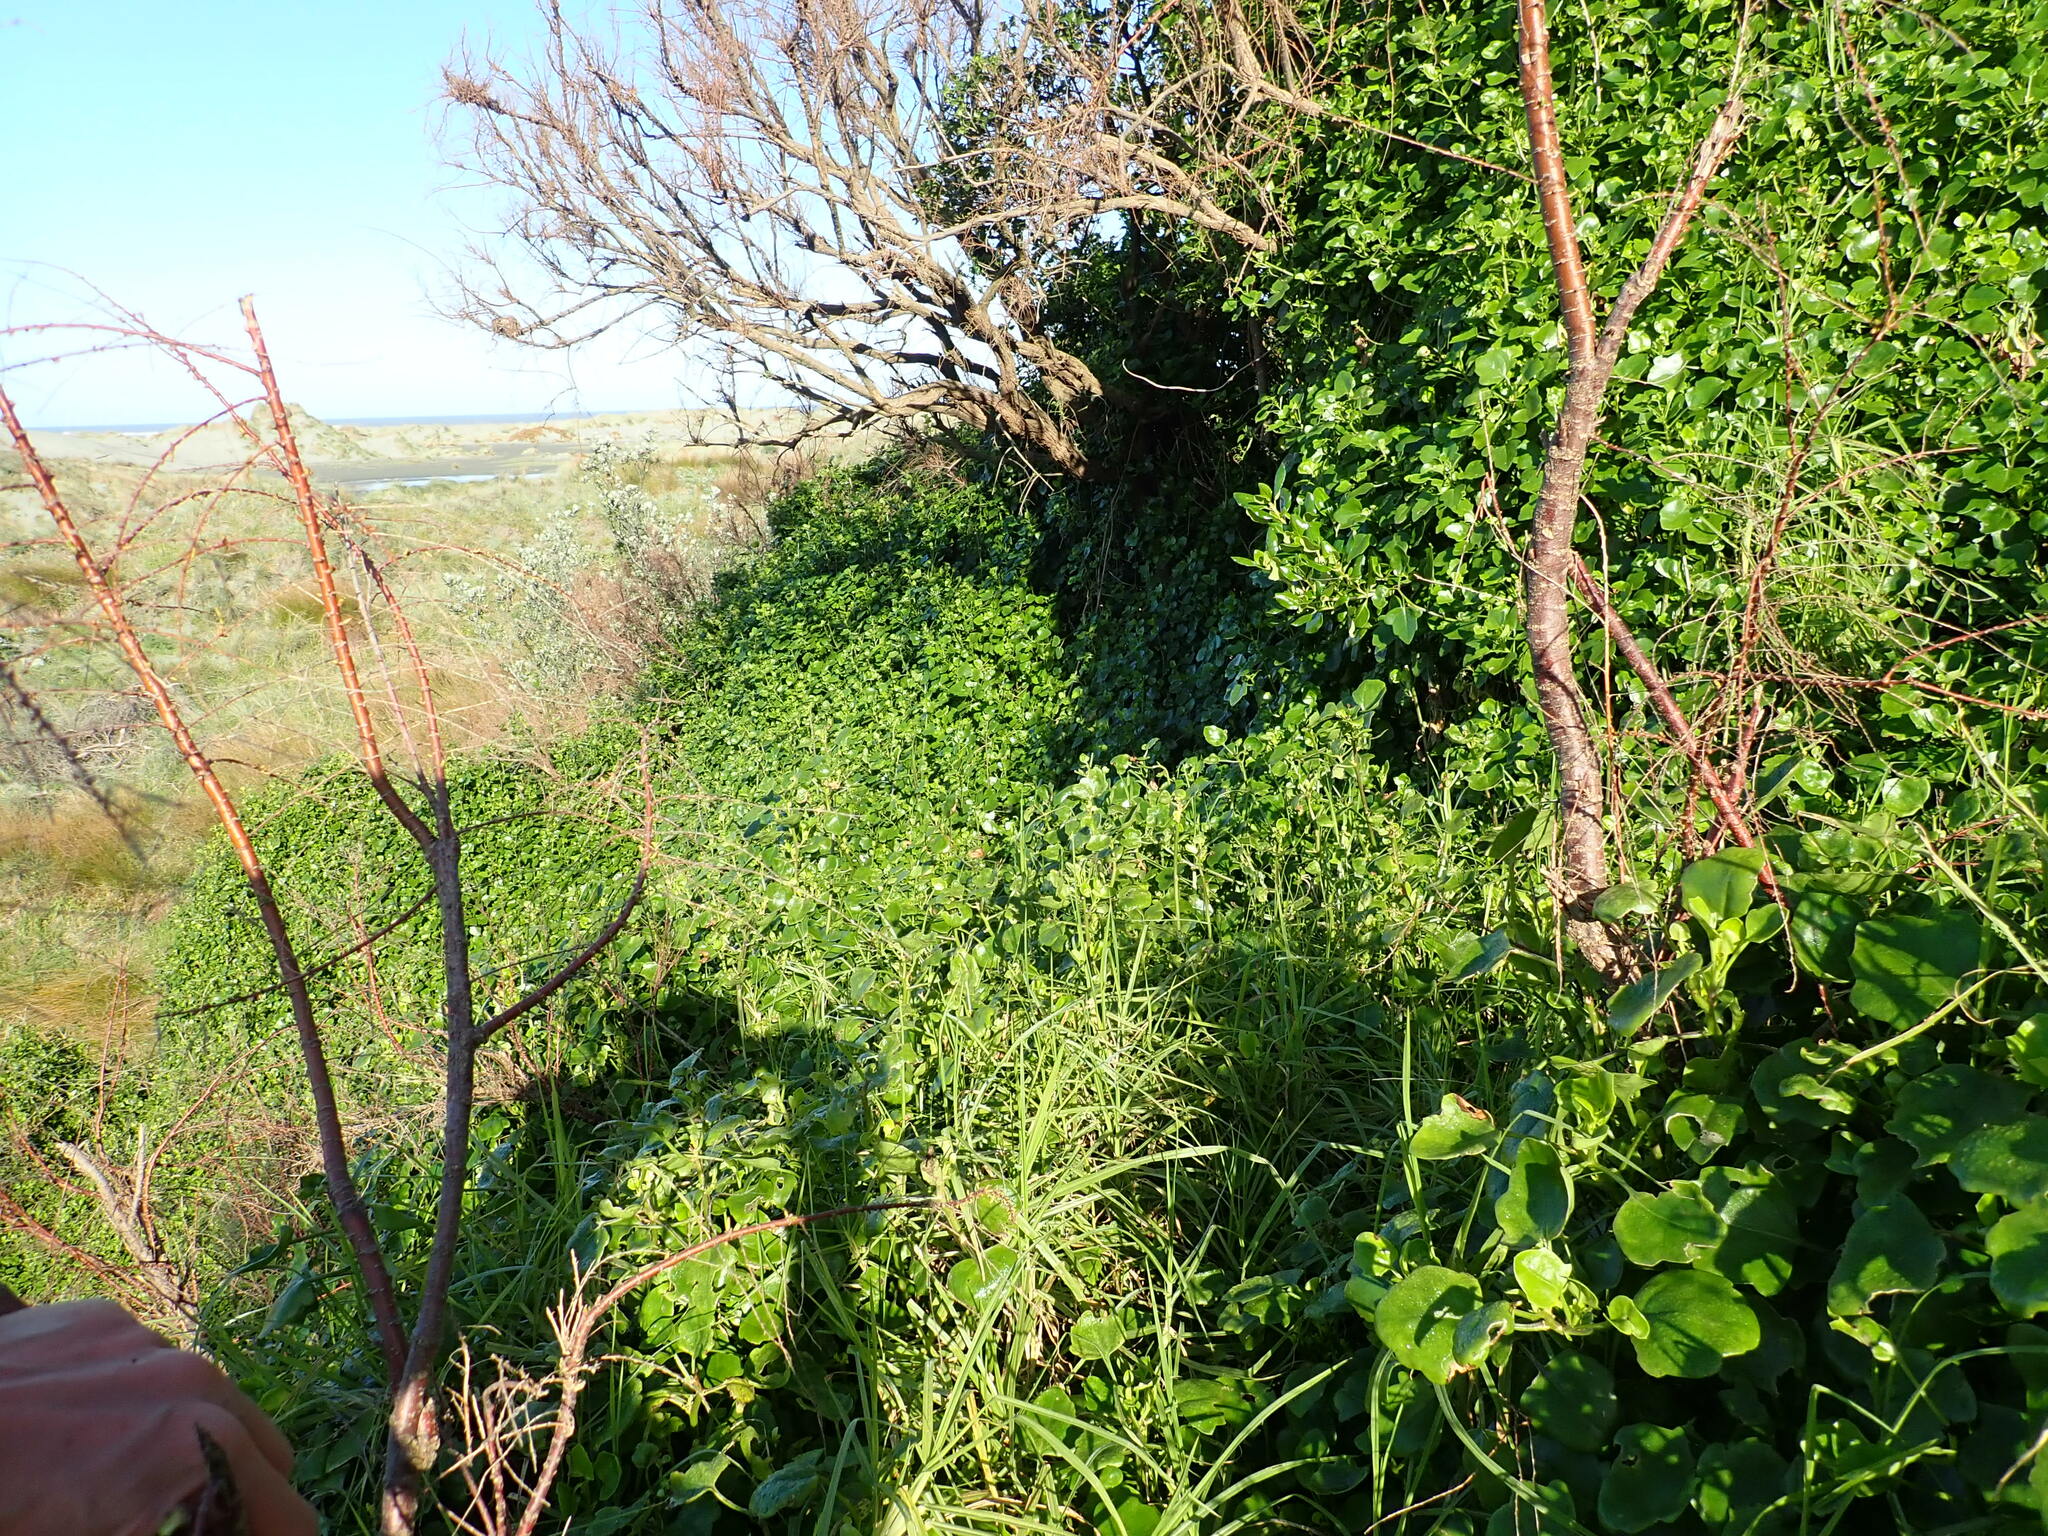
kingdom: Plantae
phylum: Tracheophyta
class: Magnoliopsida
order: Asterales
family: Asteraceae
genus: Senecio
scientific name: Senecio angulatus
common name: Climbing groundsel
